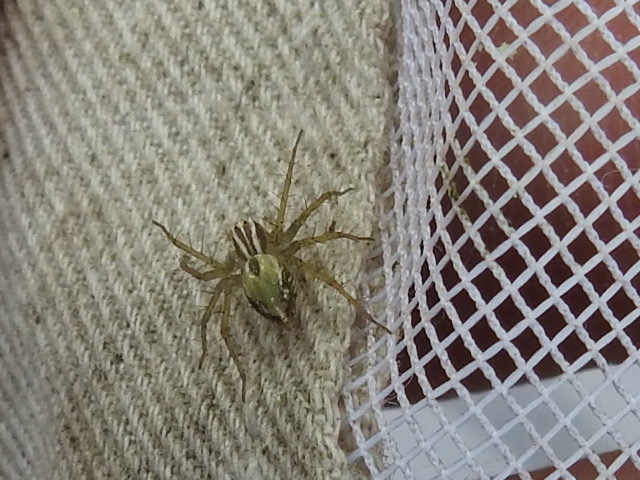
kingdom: Animalia
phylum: Arthropoda
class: Arachnida
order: Araneae
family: Oxyopidae
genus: Oxyopes
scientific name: Oxyopes salticus
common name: Lynx spiders
